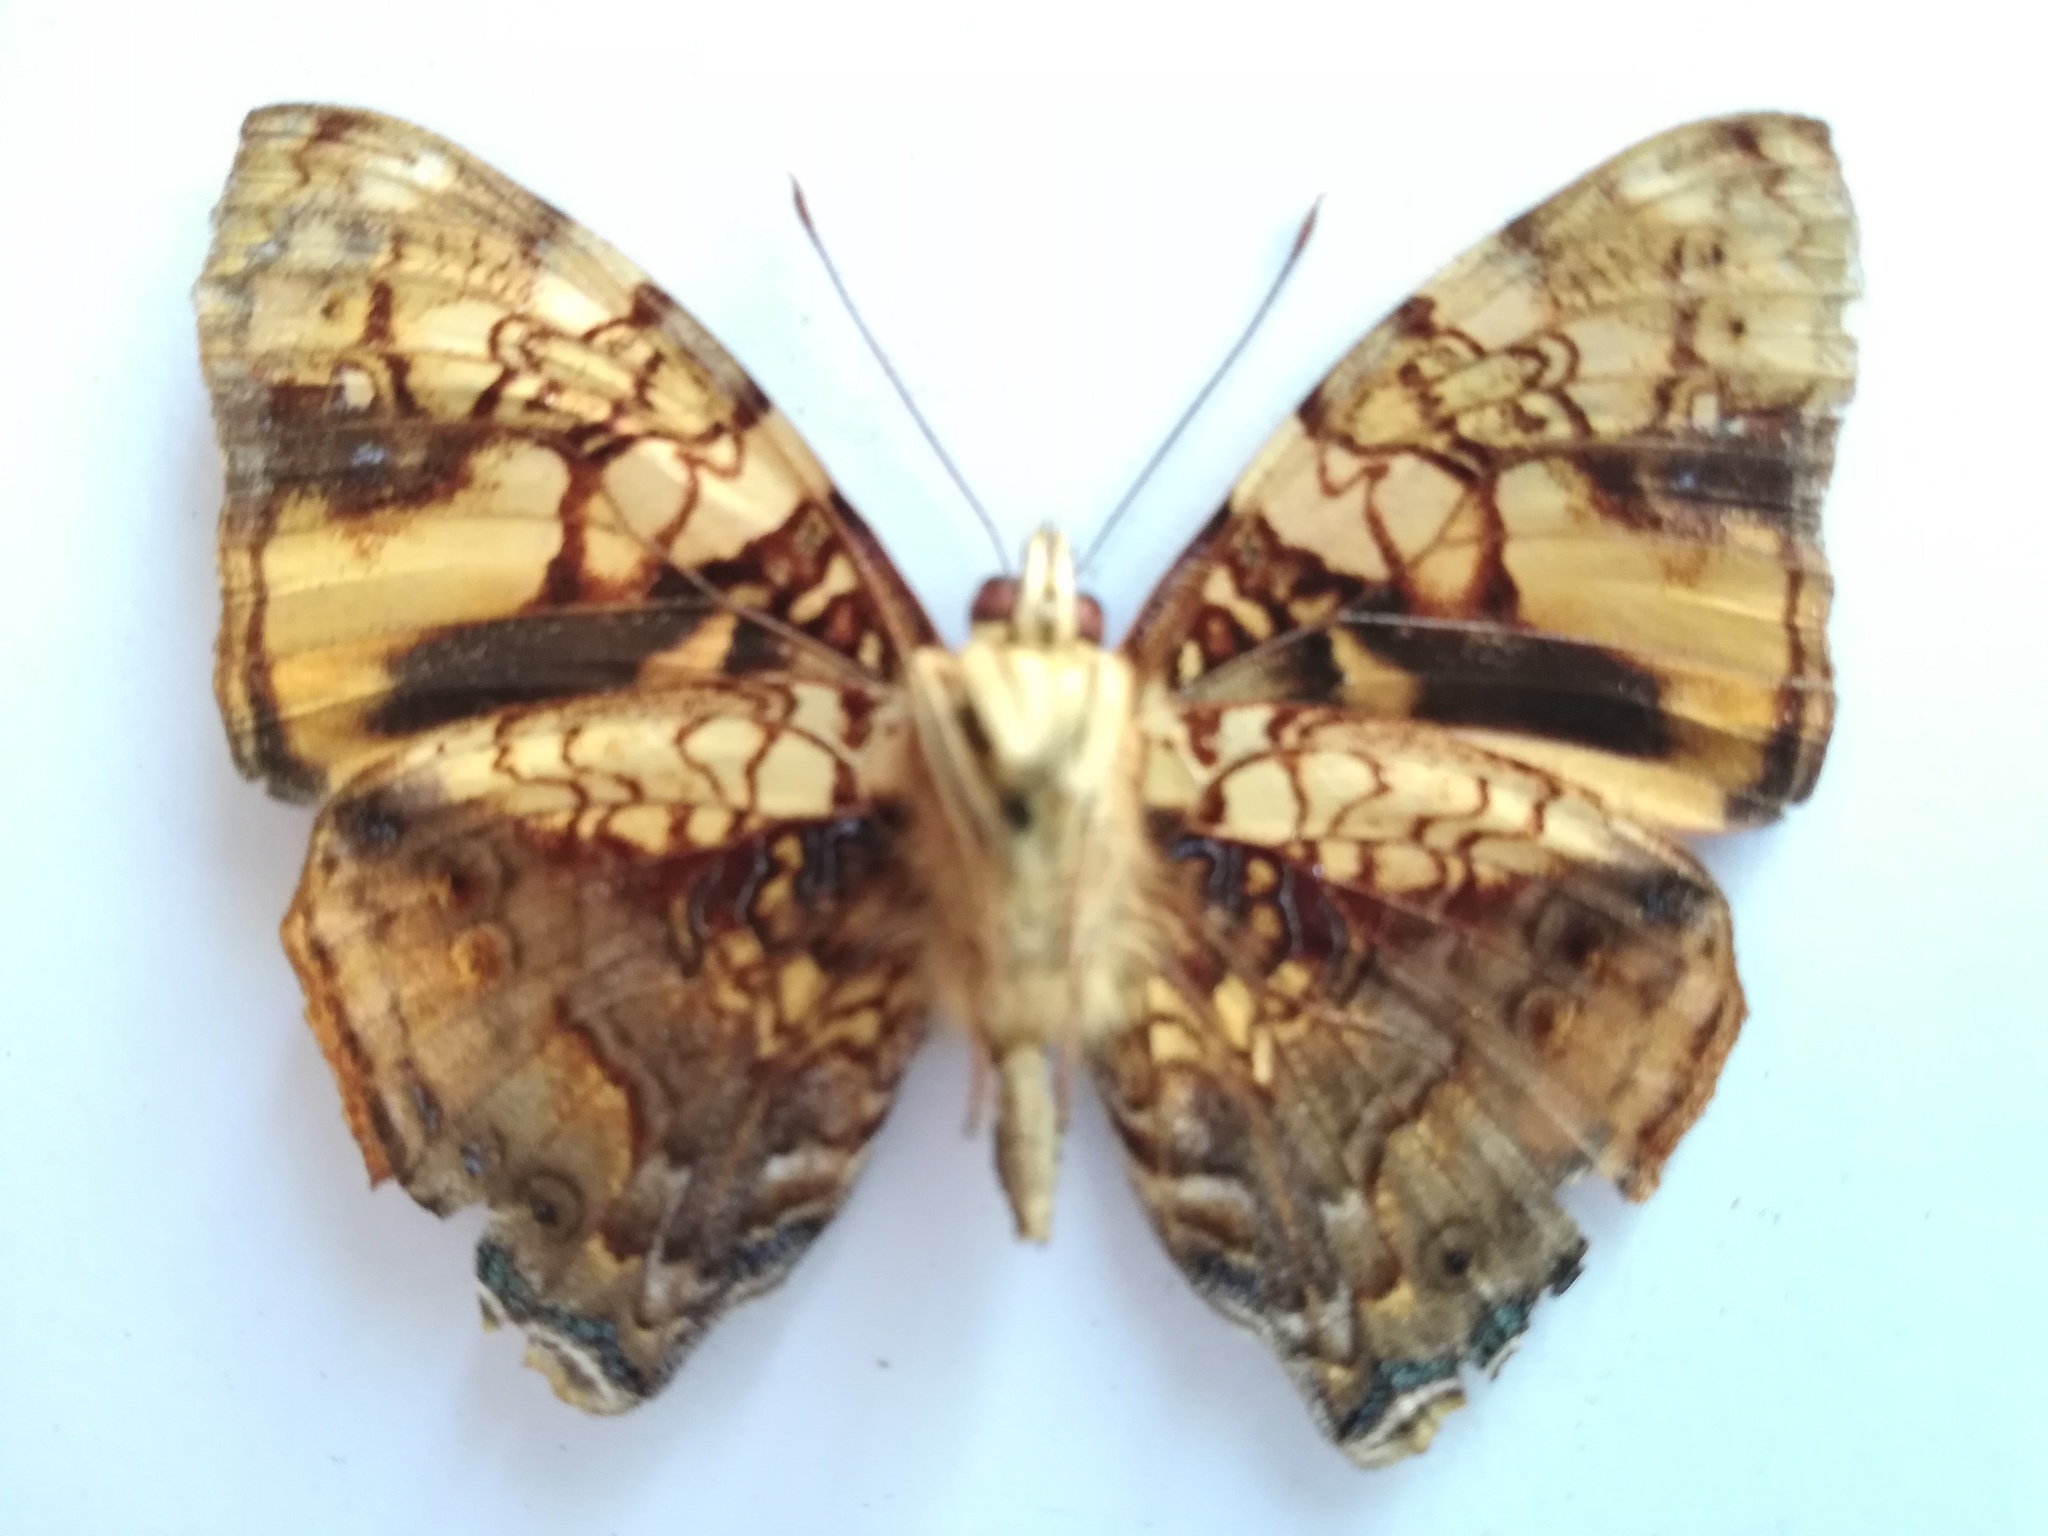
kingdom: Animalia
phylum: Arthropoda
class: Insecta
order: Lepidoptera
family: Nymphalidae
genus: Hypanartia
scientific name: Hypanartia lethe
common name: Orange mapwing
